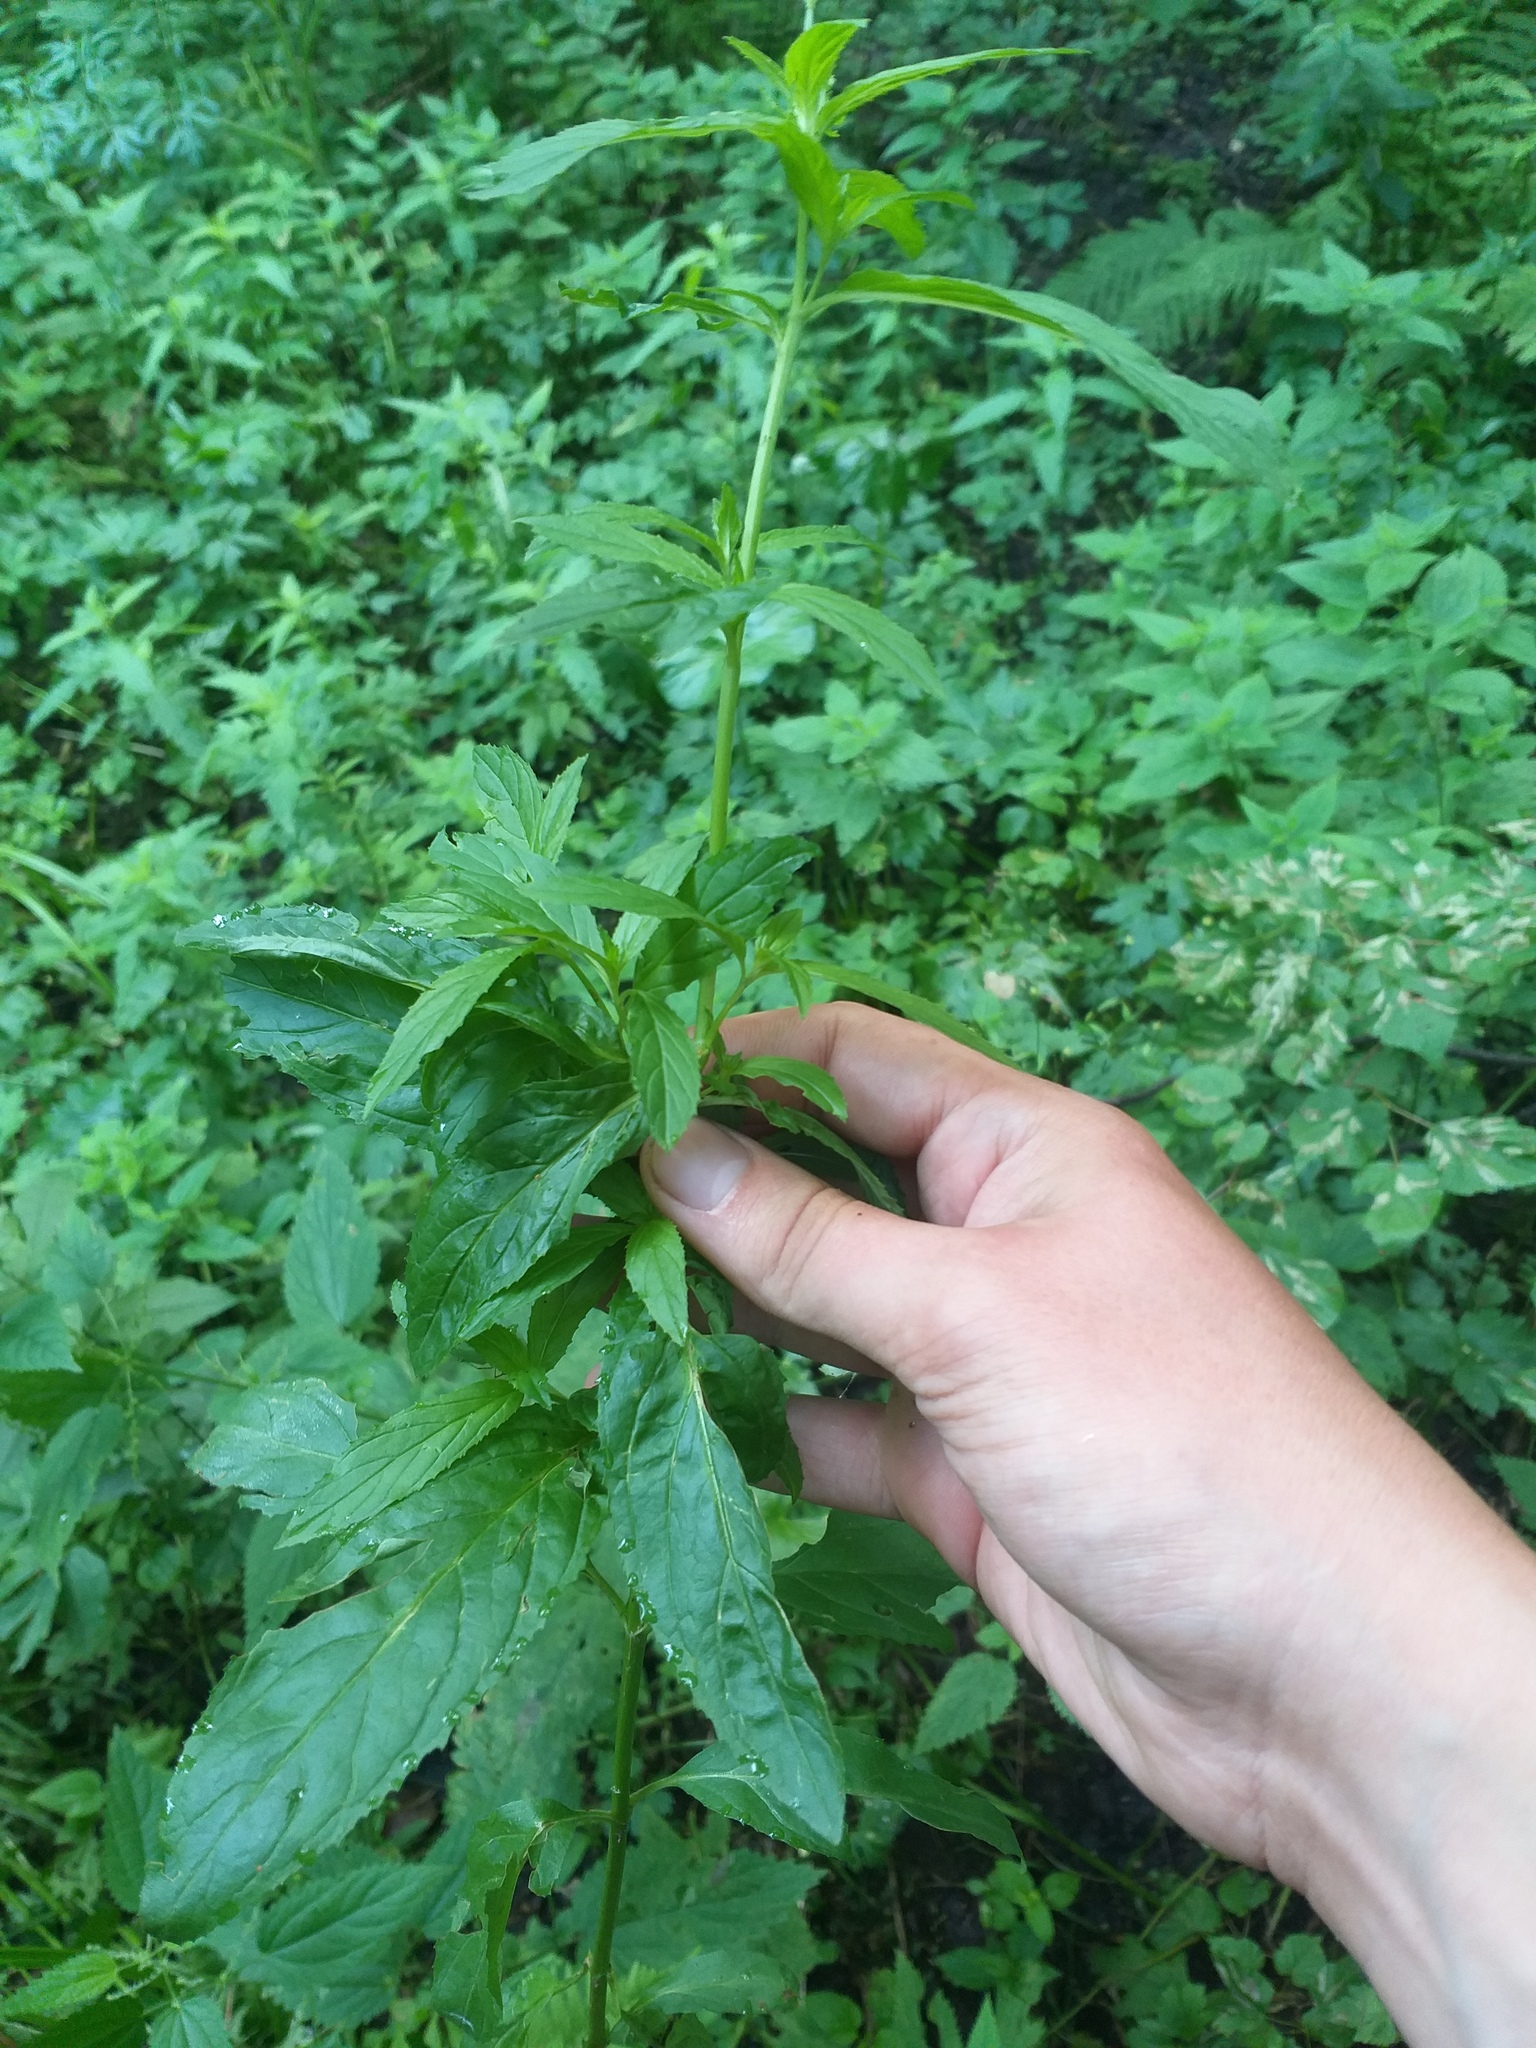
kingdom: Plantae
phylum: Tracheophyta
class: Magnoliopsida
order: Myrtales
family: Onagraceae
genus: Epilobium
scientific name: Epilobium roseum
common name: Pale willowherb
